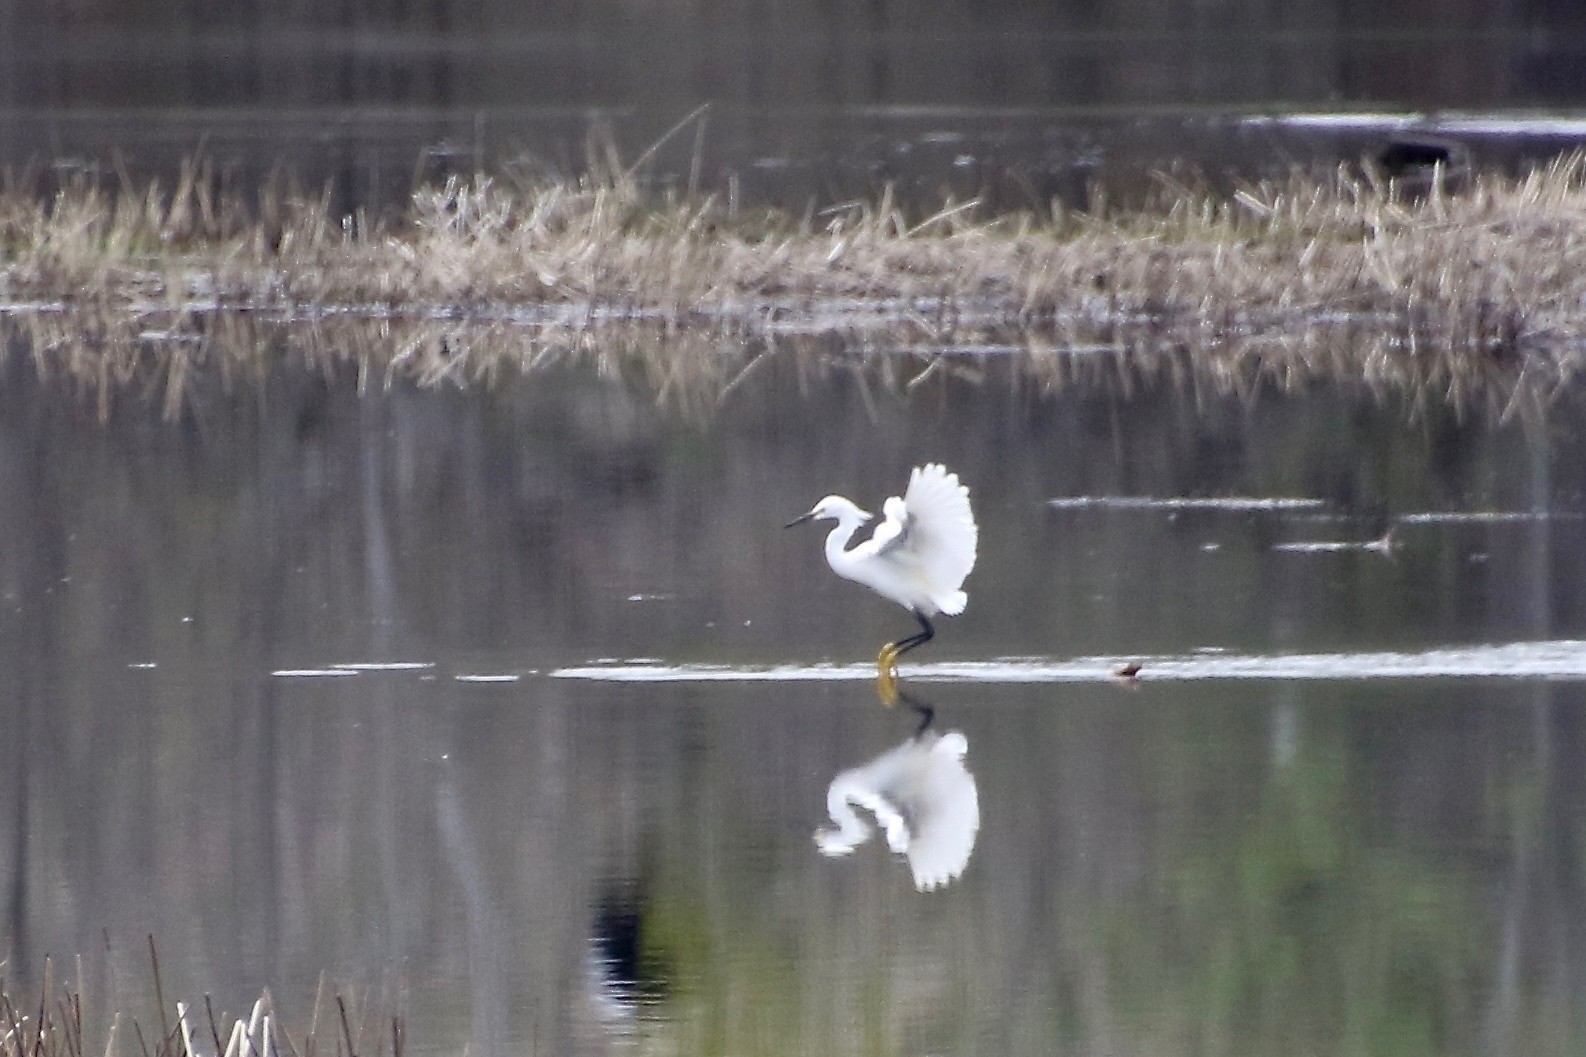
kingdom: Animalia
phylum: Chordata
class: Aves
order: Pelecaniformes
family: Ardeidae
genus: Egretta
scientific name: Egretta thula
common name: Snowy egret
